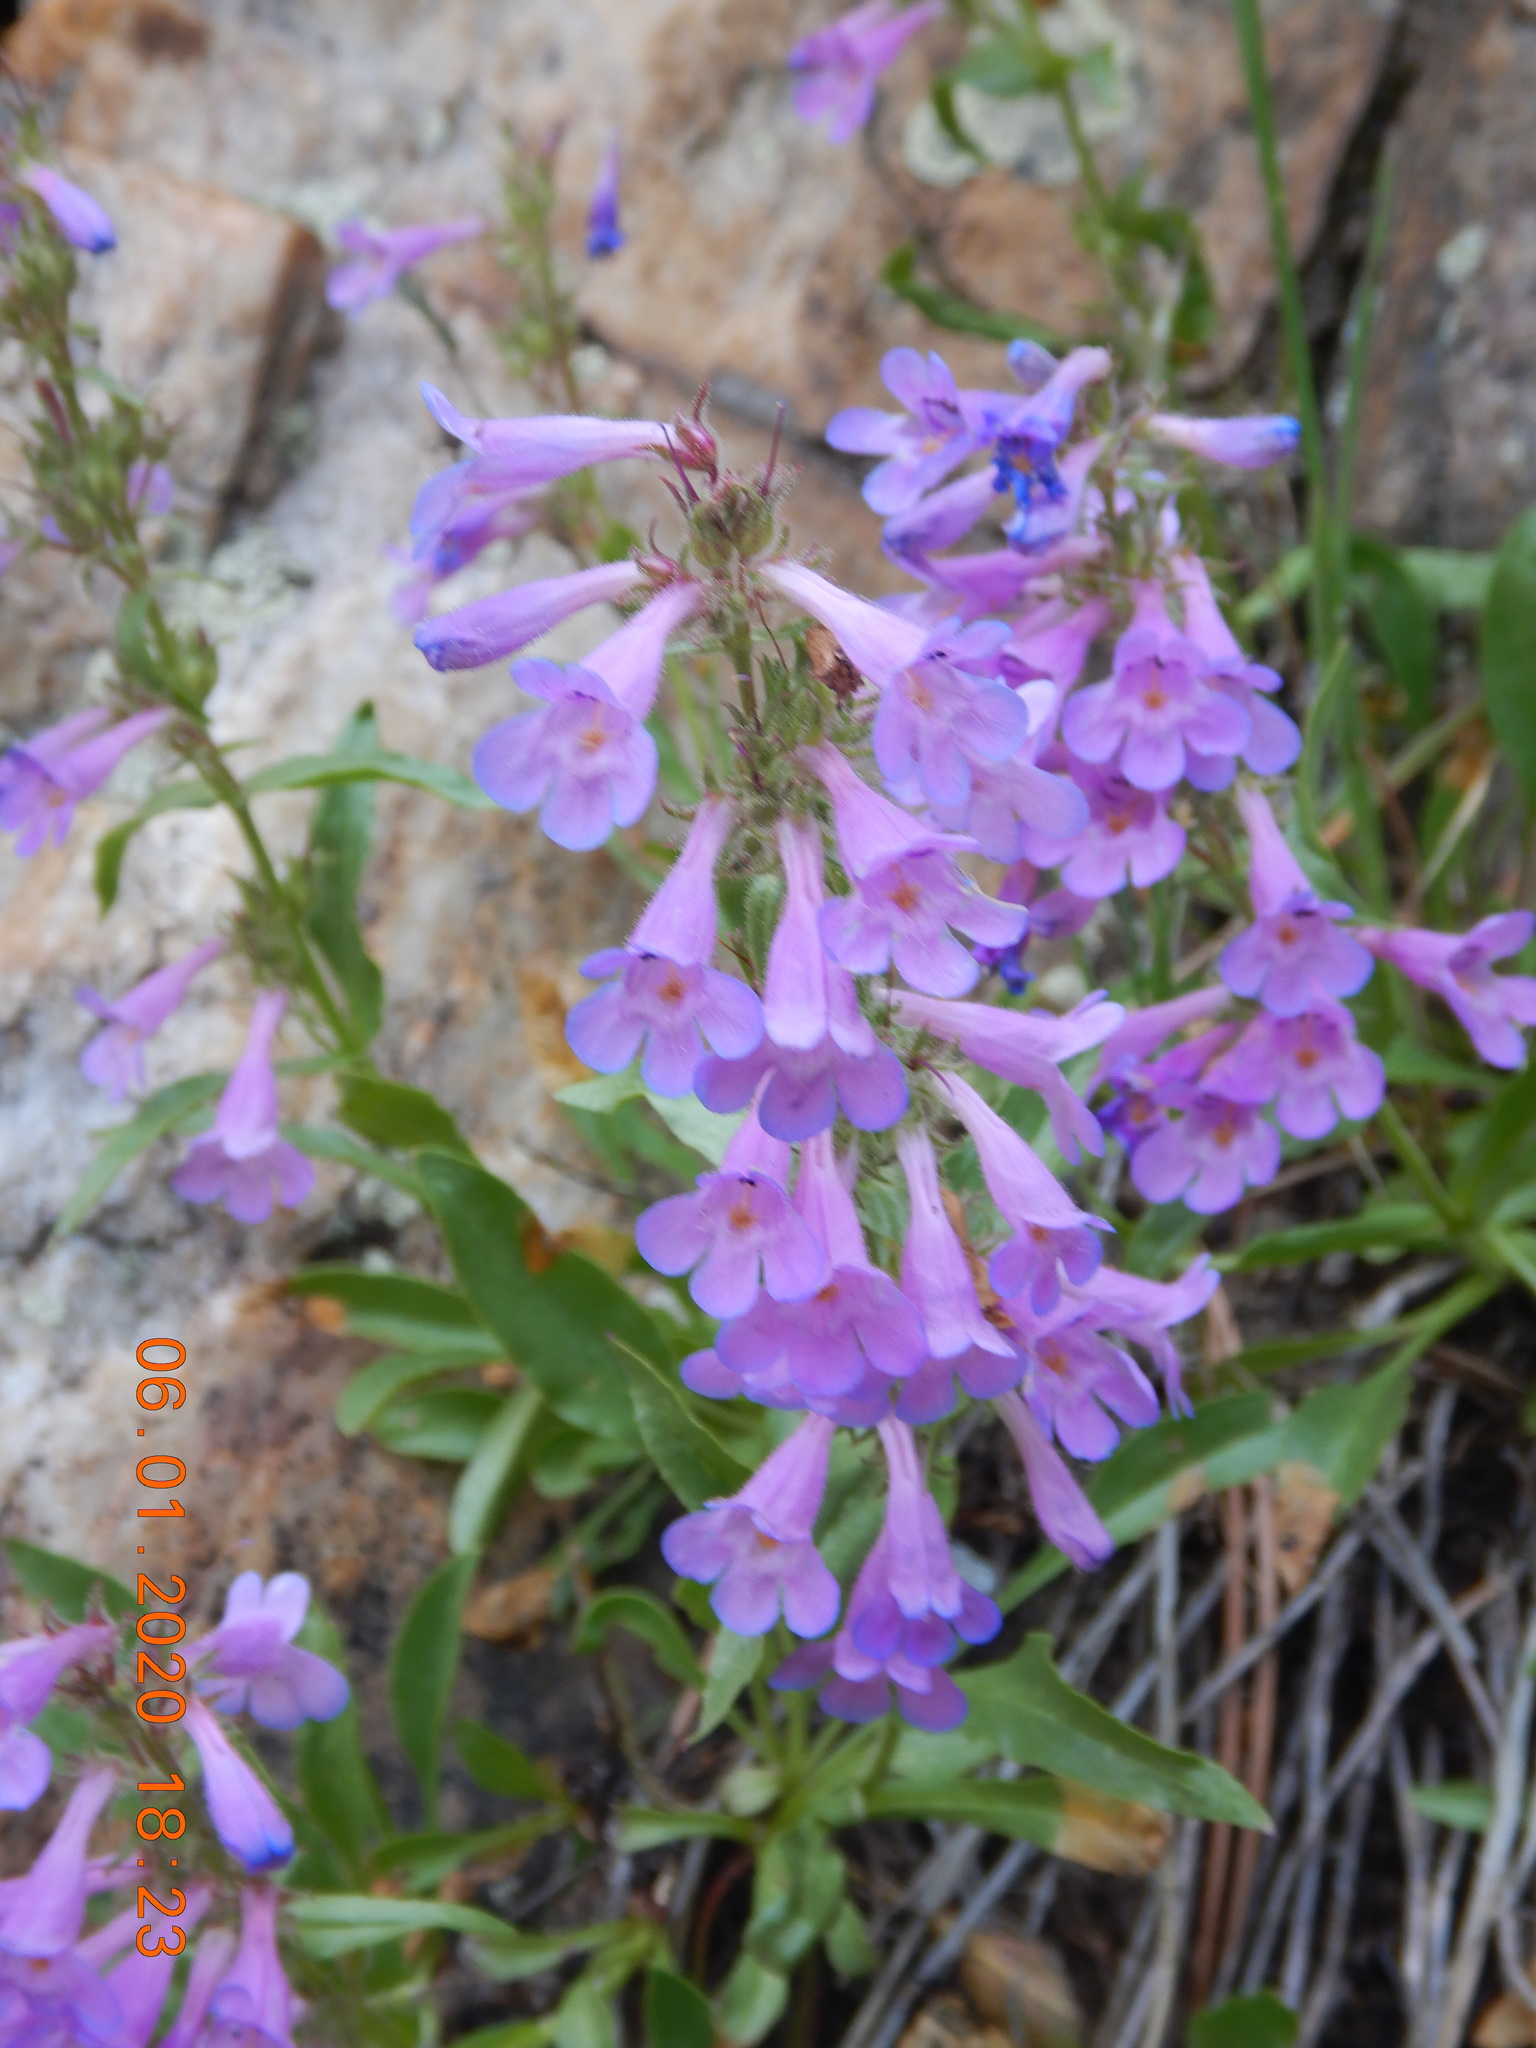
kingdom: Plantae
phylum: Tracheophyta
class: Magnoliopsida
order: Lamiales
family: Plantaginaceae
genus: Penstemon
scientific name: Penstemon virens
